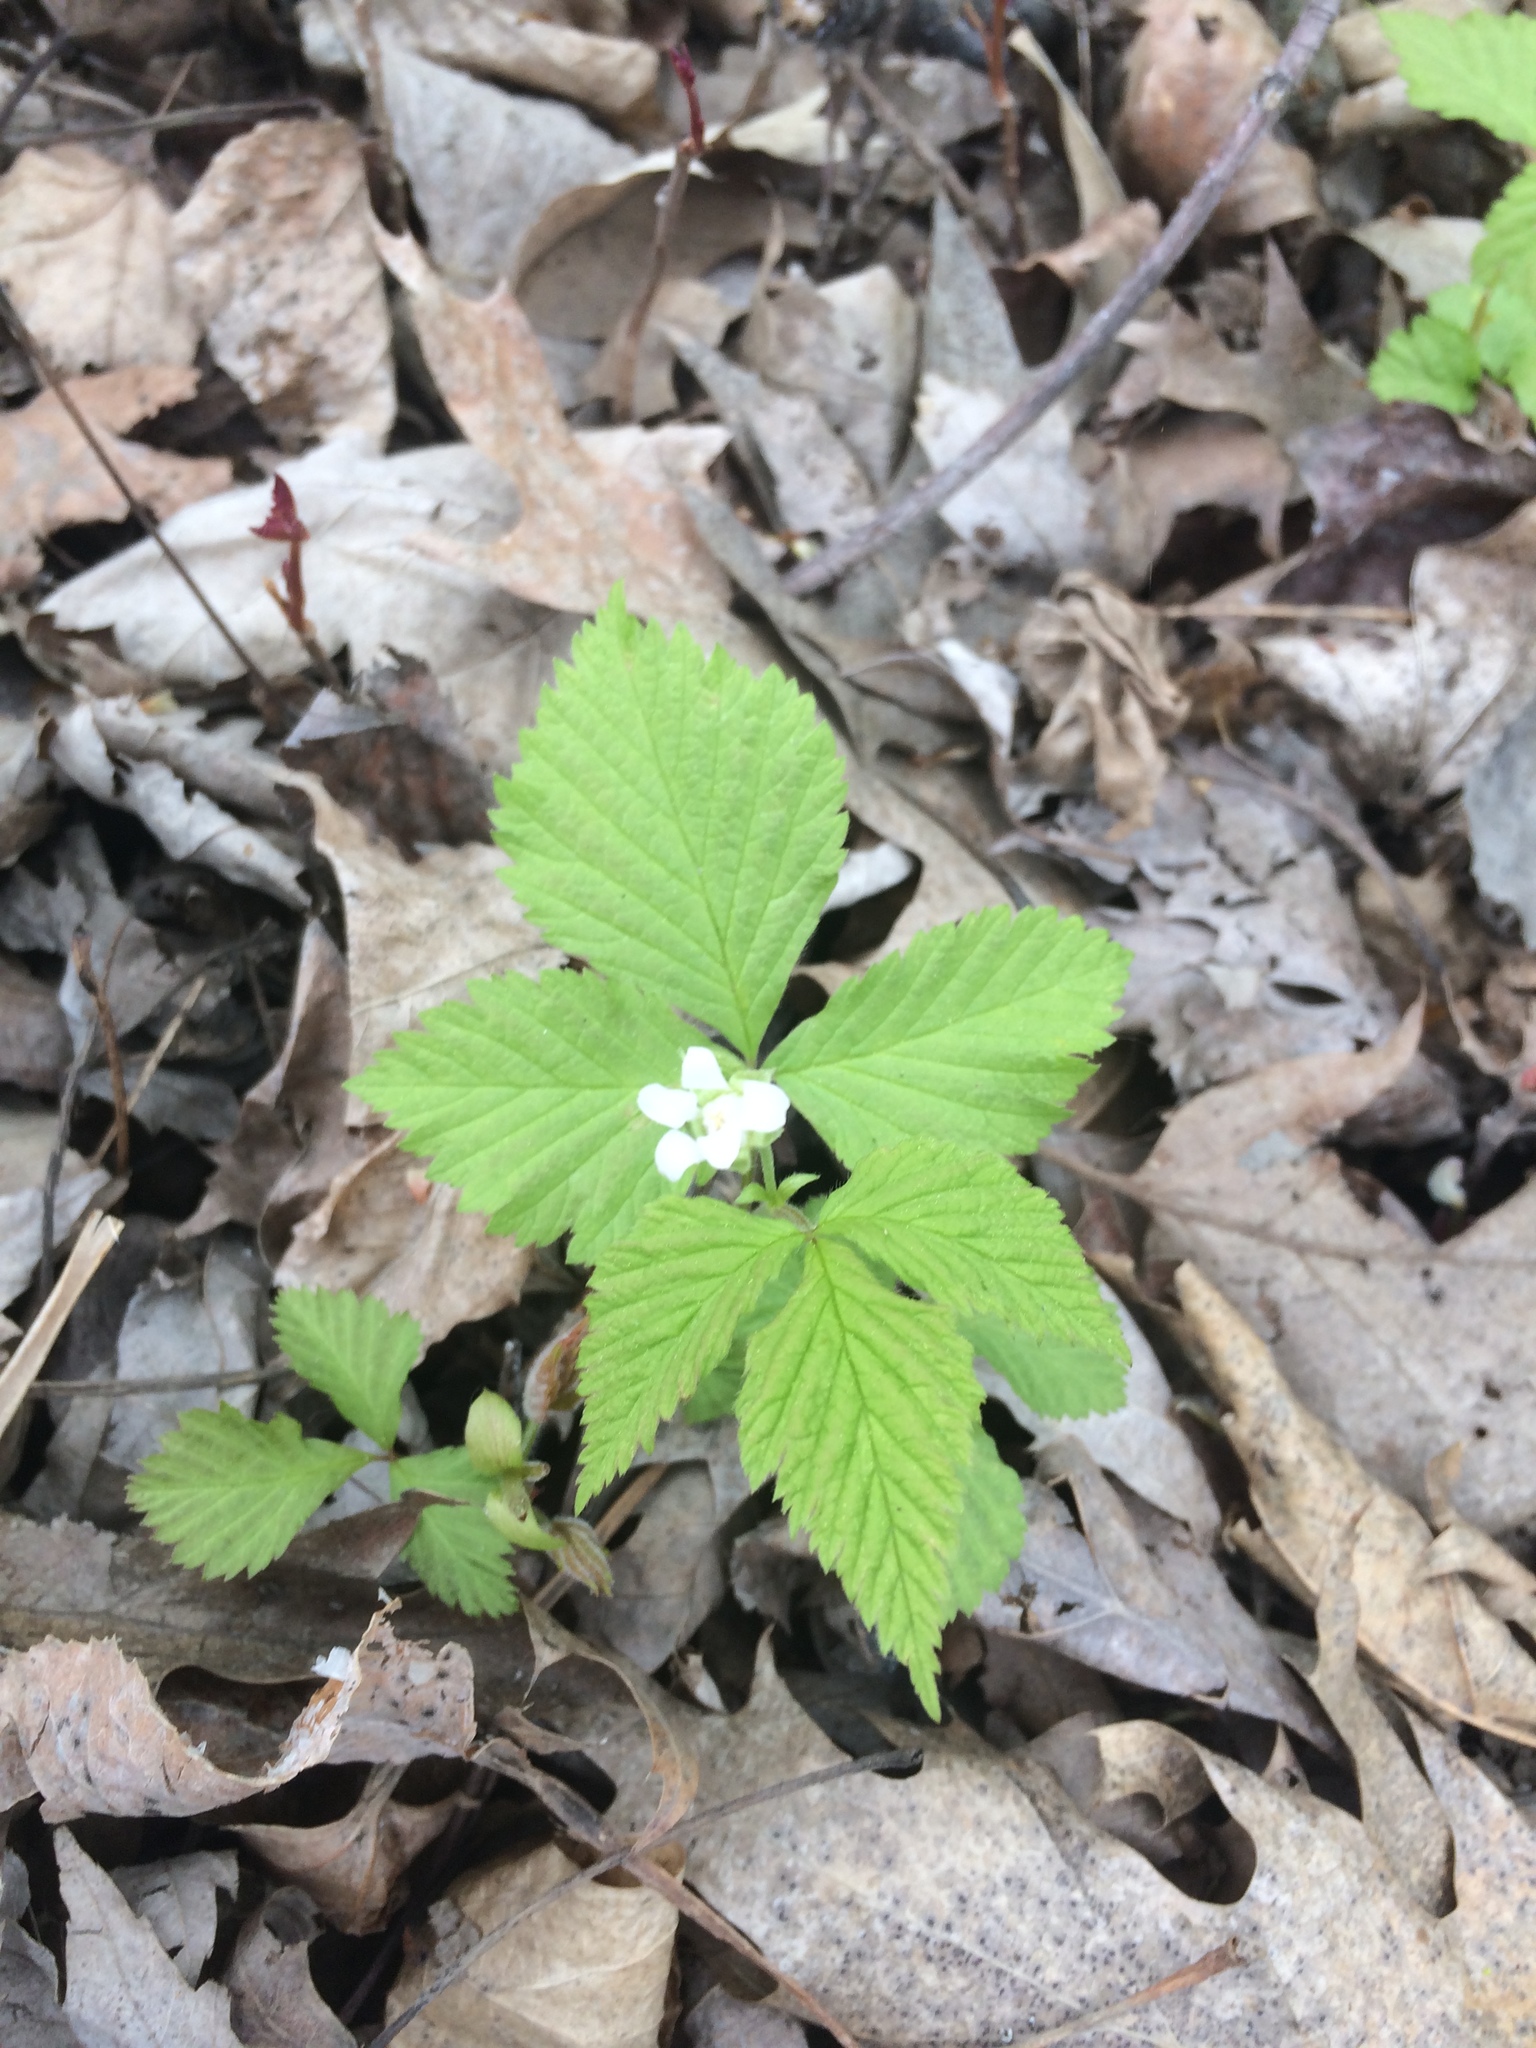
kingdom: Plantae
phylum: Tracheophyta
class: Magnoliopsida
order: Rosales
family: Rosaceae
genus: Rubus
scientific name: Rubus pubescens
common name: Dwarf raspberry
